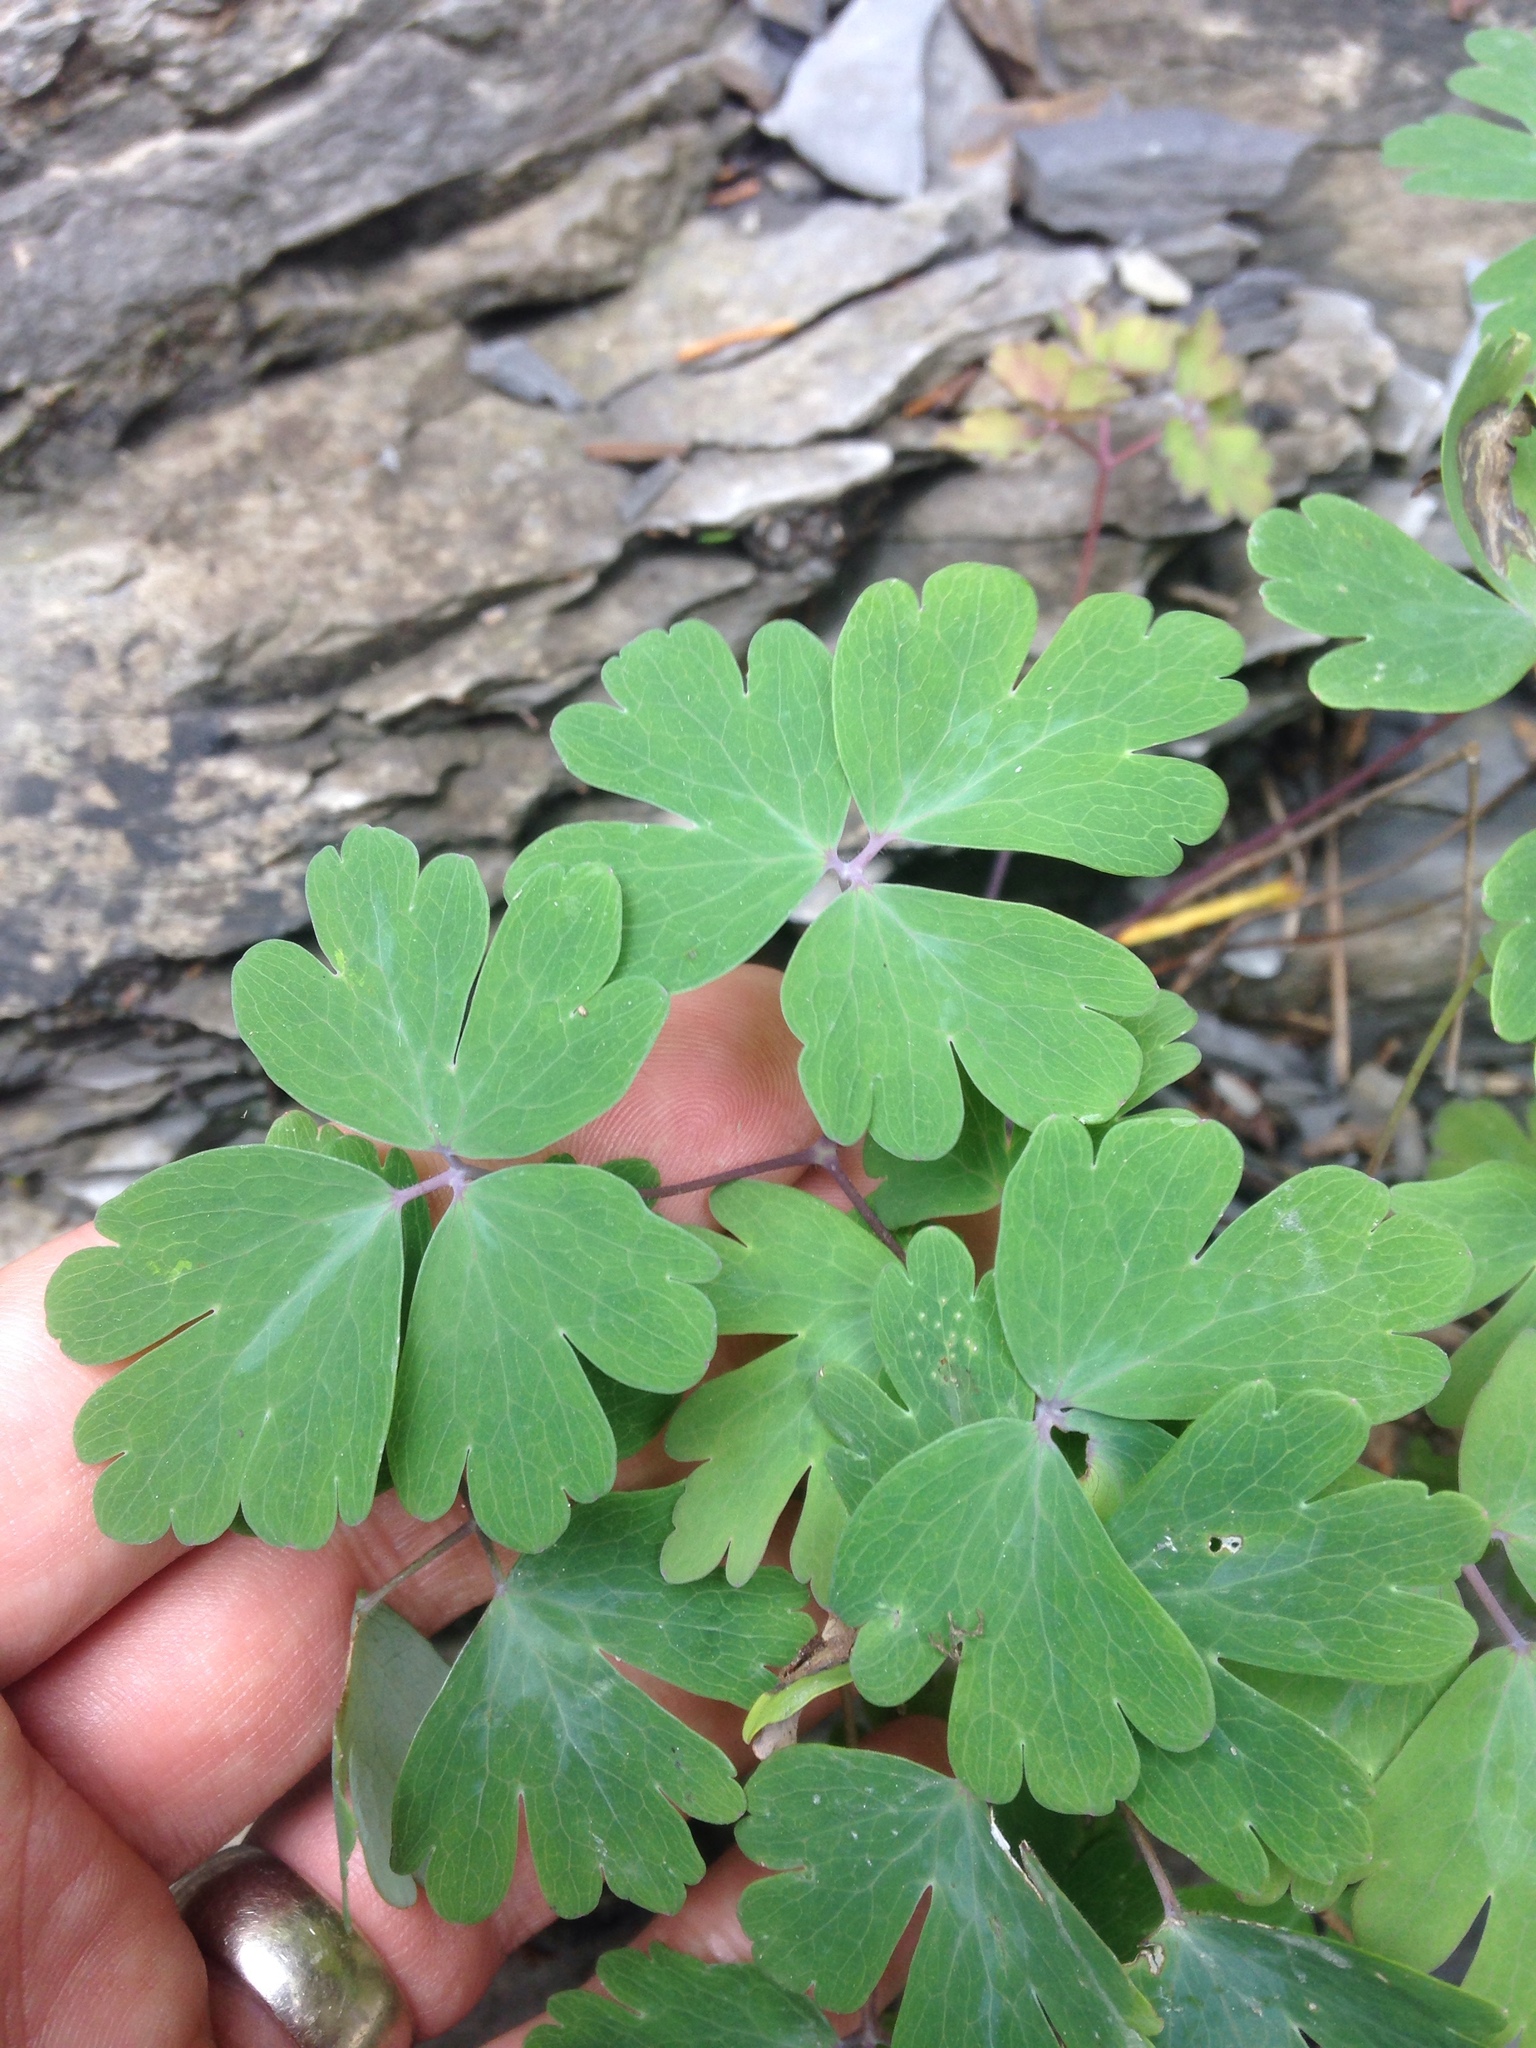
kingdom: Plantae
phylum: Tracheophyta
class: Magnoliopsida
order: Ranunculales
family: Ranunculaceae
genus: Aquilegia
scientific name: Aquilegia canadensis
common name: American columbine
